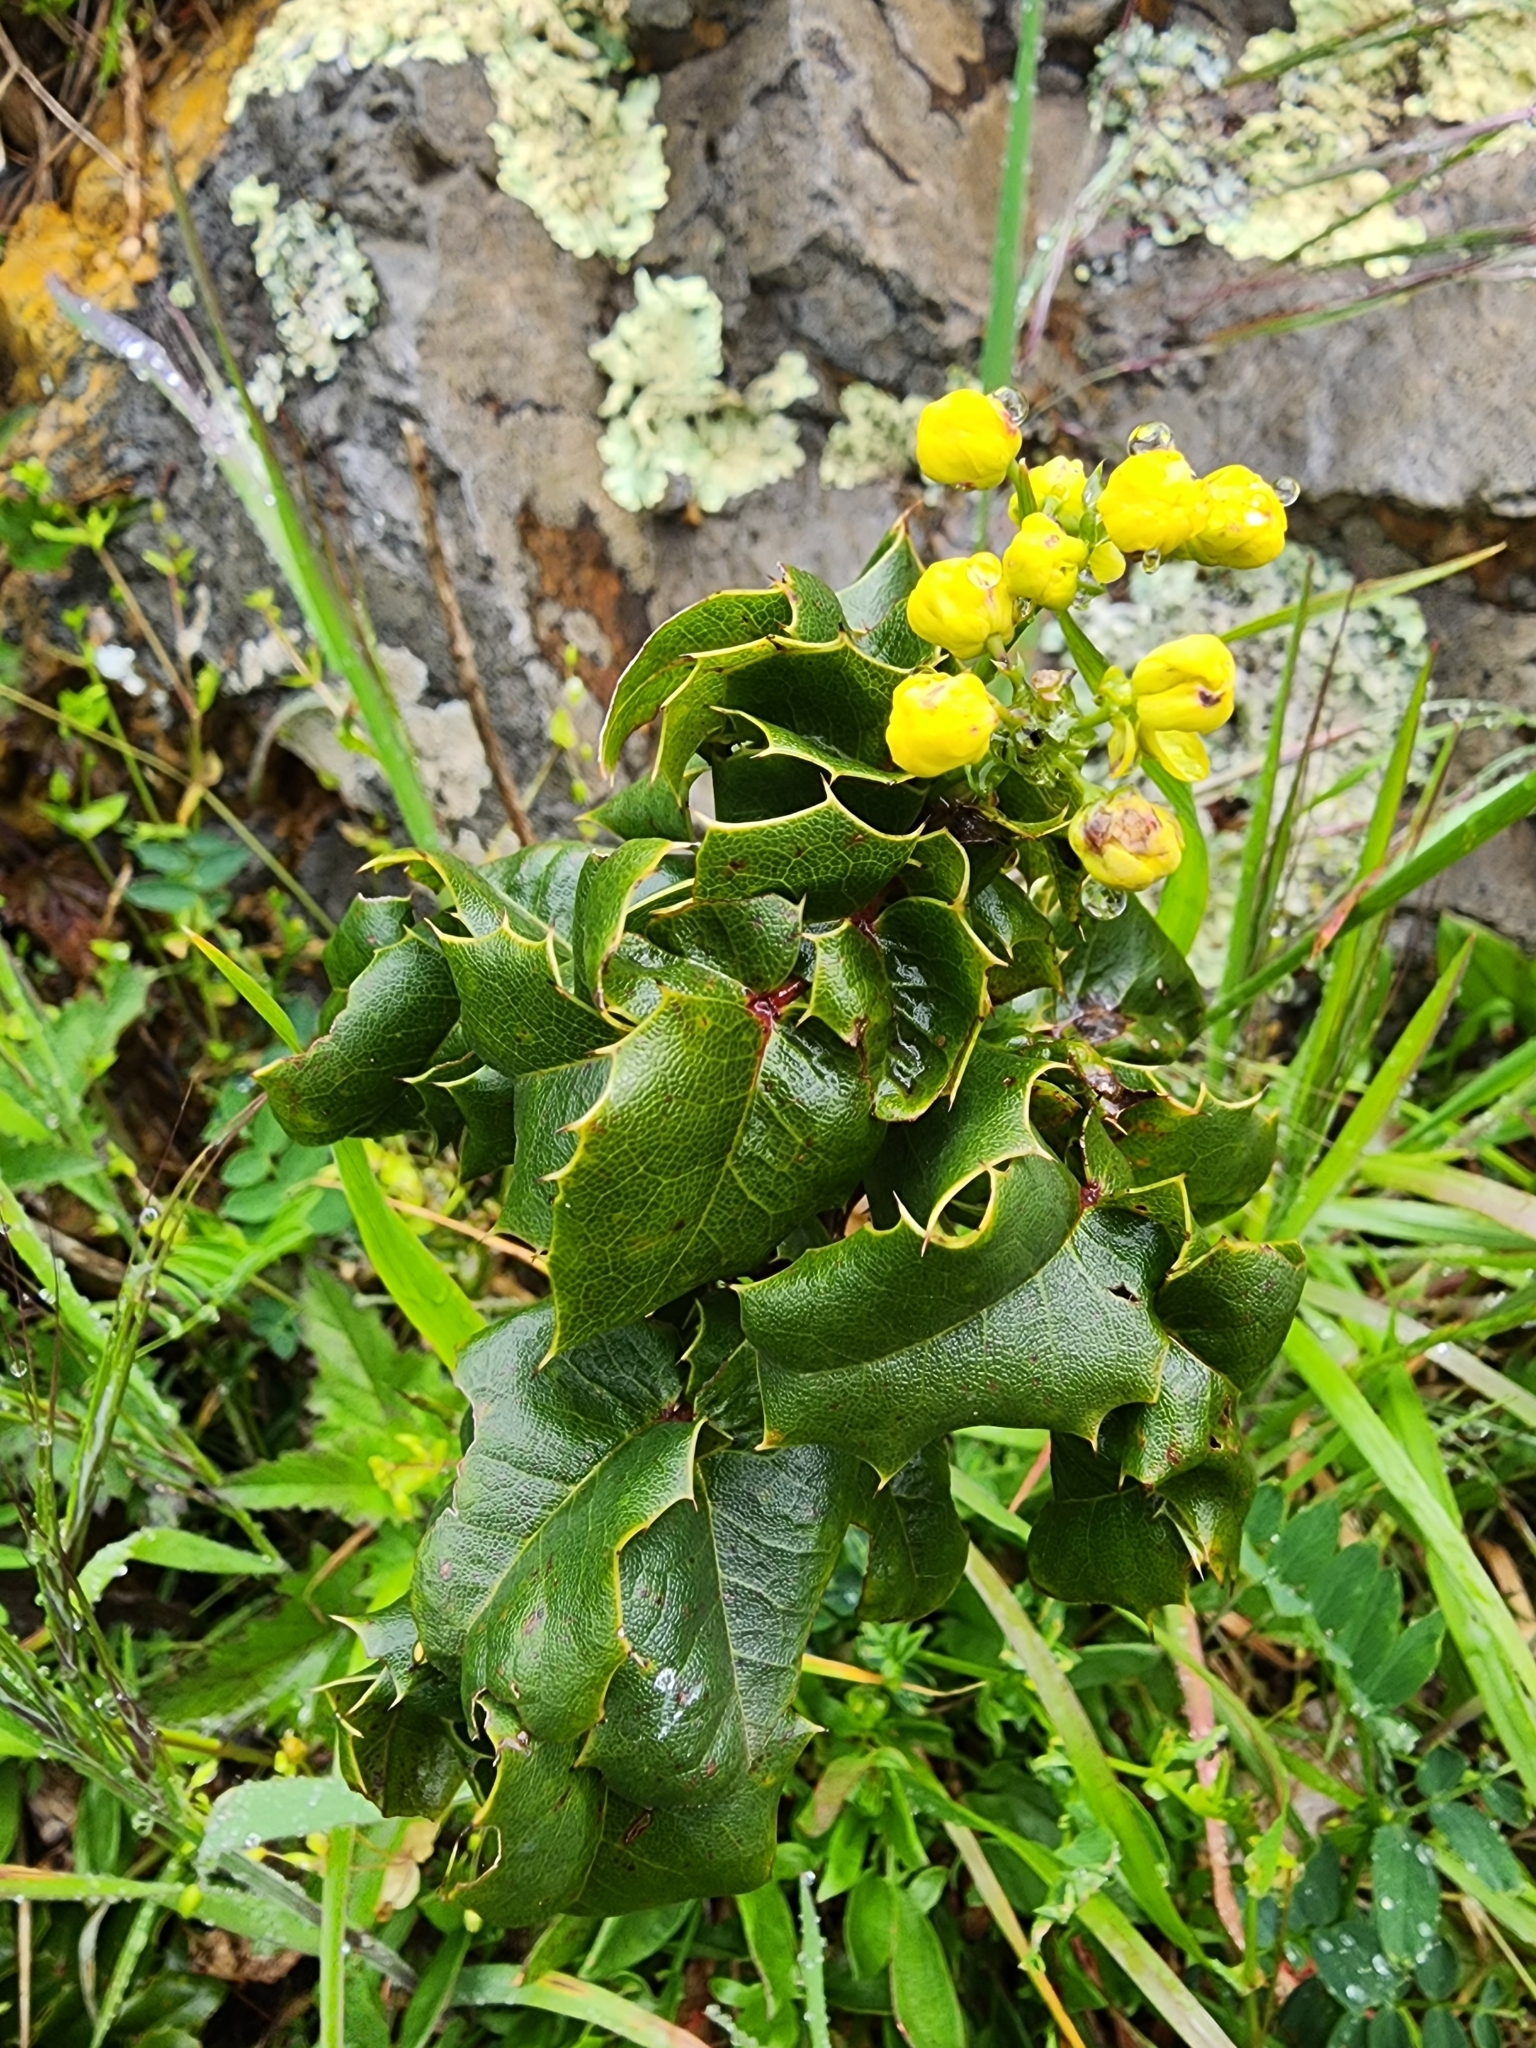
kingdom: Plantae
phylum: Tracheophyta
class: Magnoliopsida
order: Ranunculales
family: Berberidaceae
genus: Mahonia
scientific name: Mahonia
